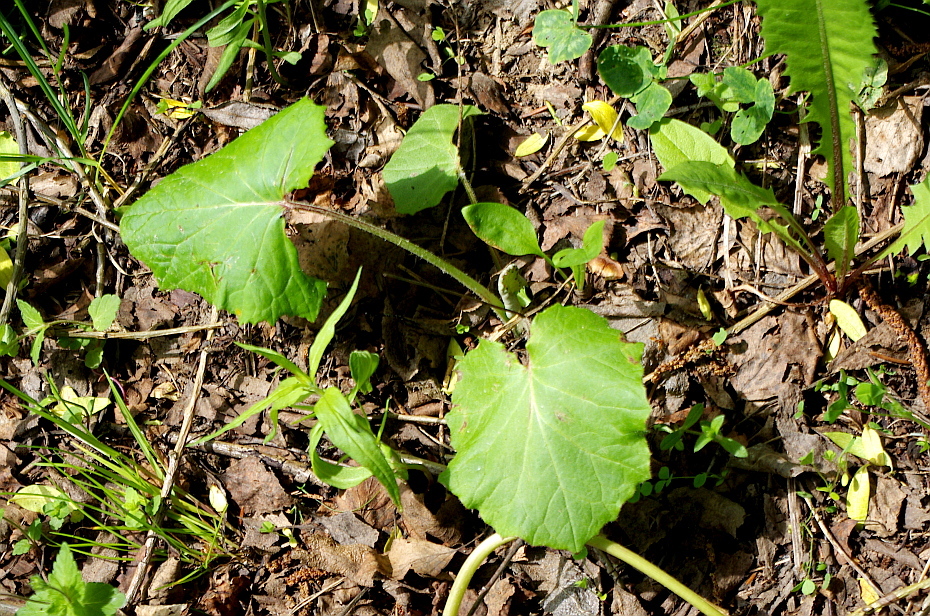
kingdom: Plantae
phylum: Tracheophyta
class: Magnoliopsida
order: Asterales
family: Asteraceae
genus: Tussilago
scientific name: Tussilago farfara
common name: Coltsfoot
